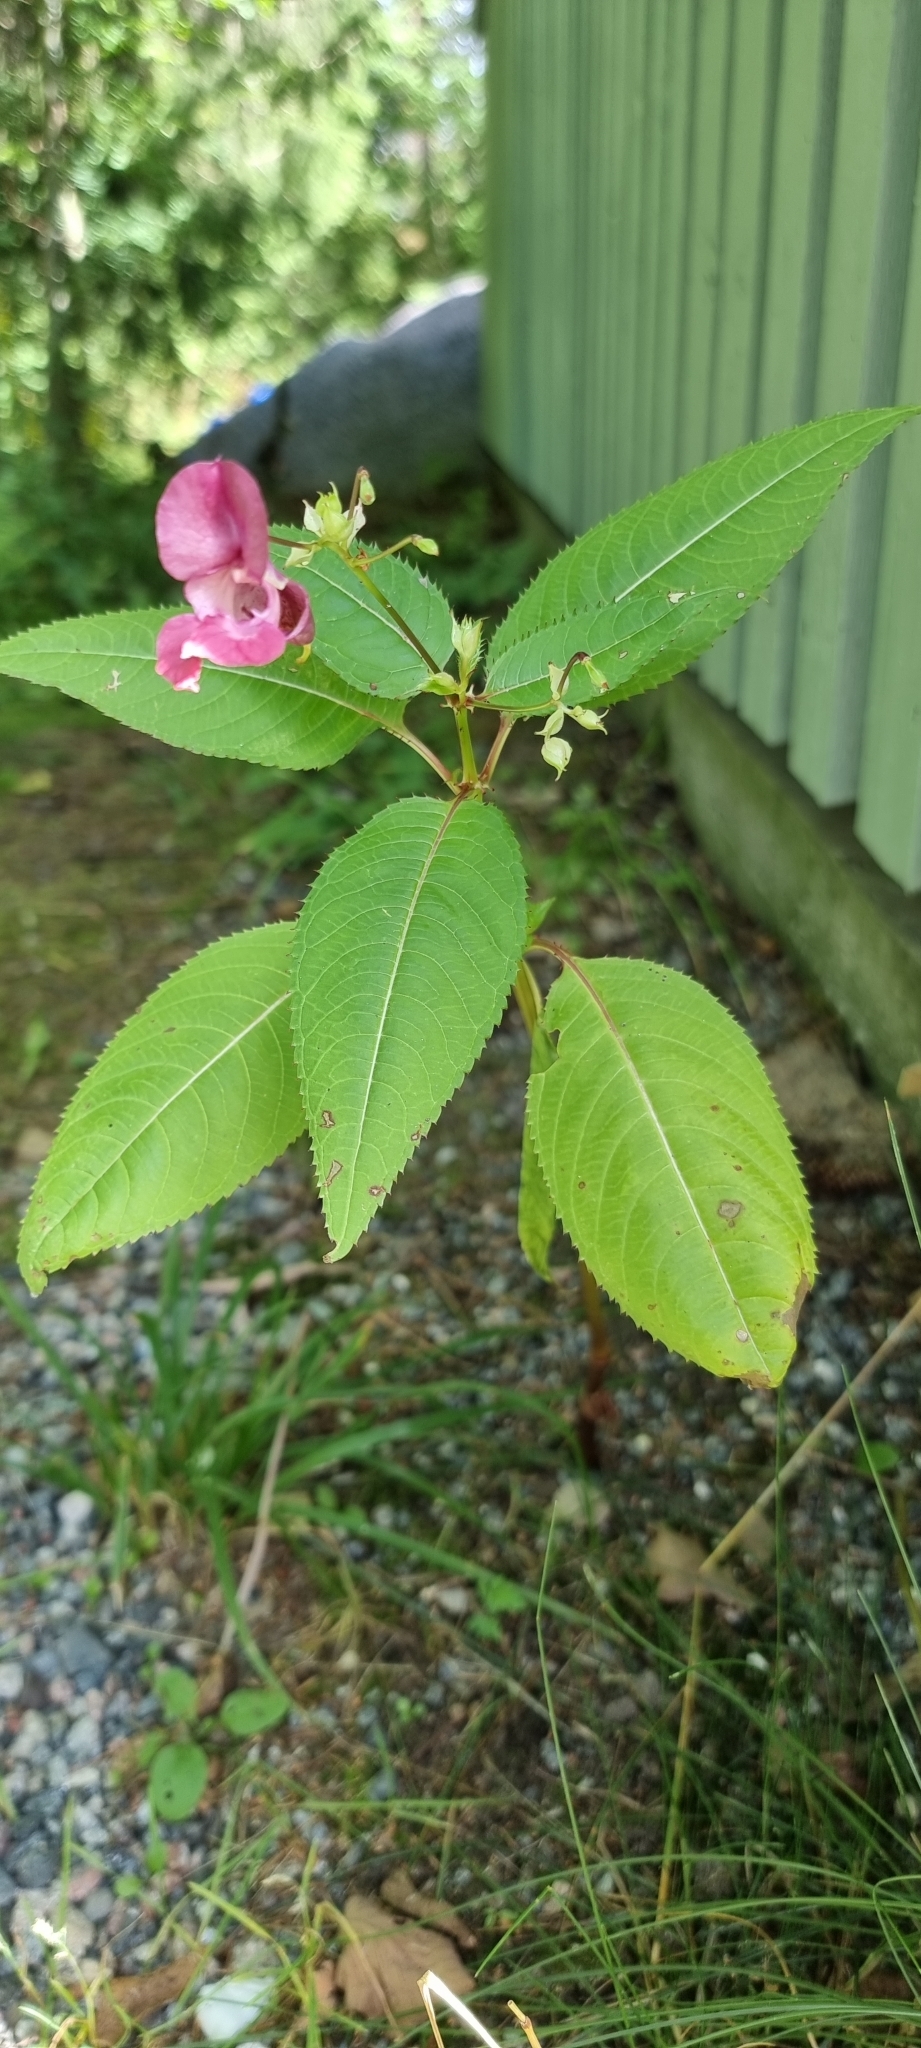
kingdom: Plantae
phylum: Tracheophyta
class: Magnoliopsida
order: Ericales
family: Balsaminaceae
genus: Impatiens
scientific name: Impatiens glandulifera
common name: Himalayan balsam
